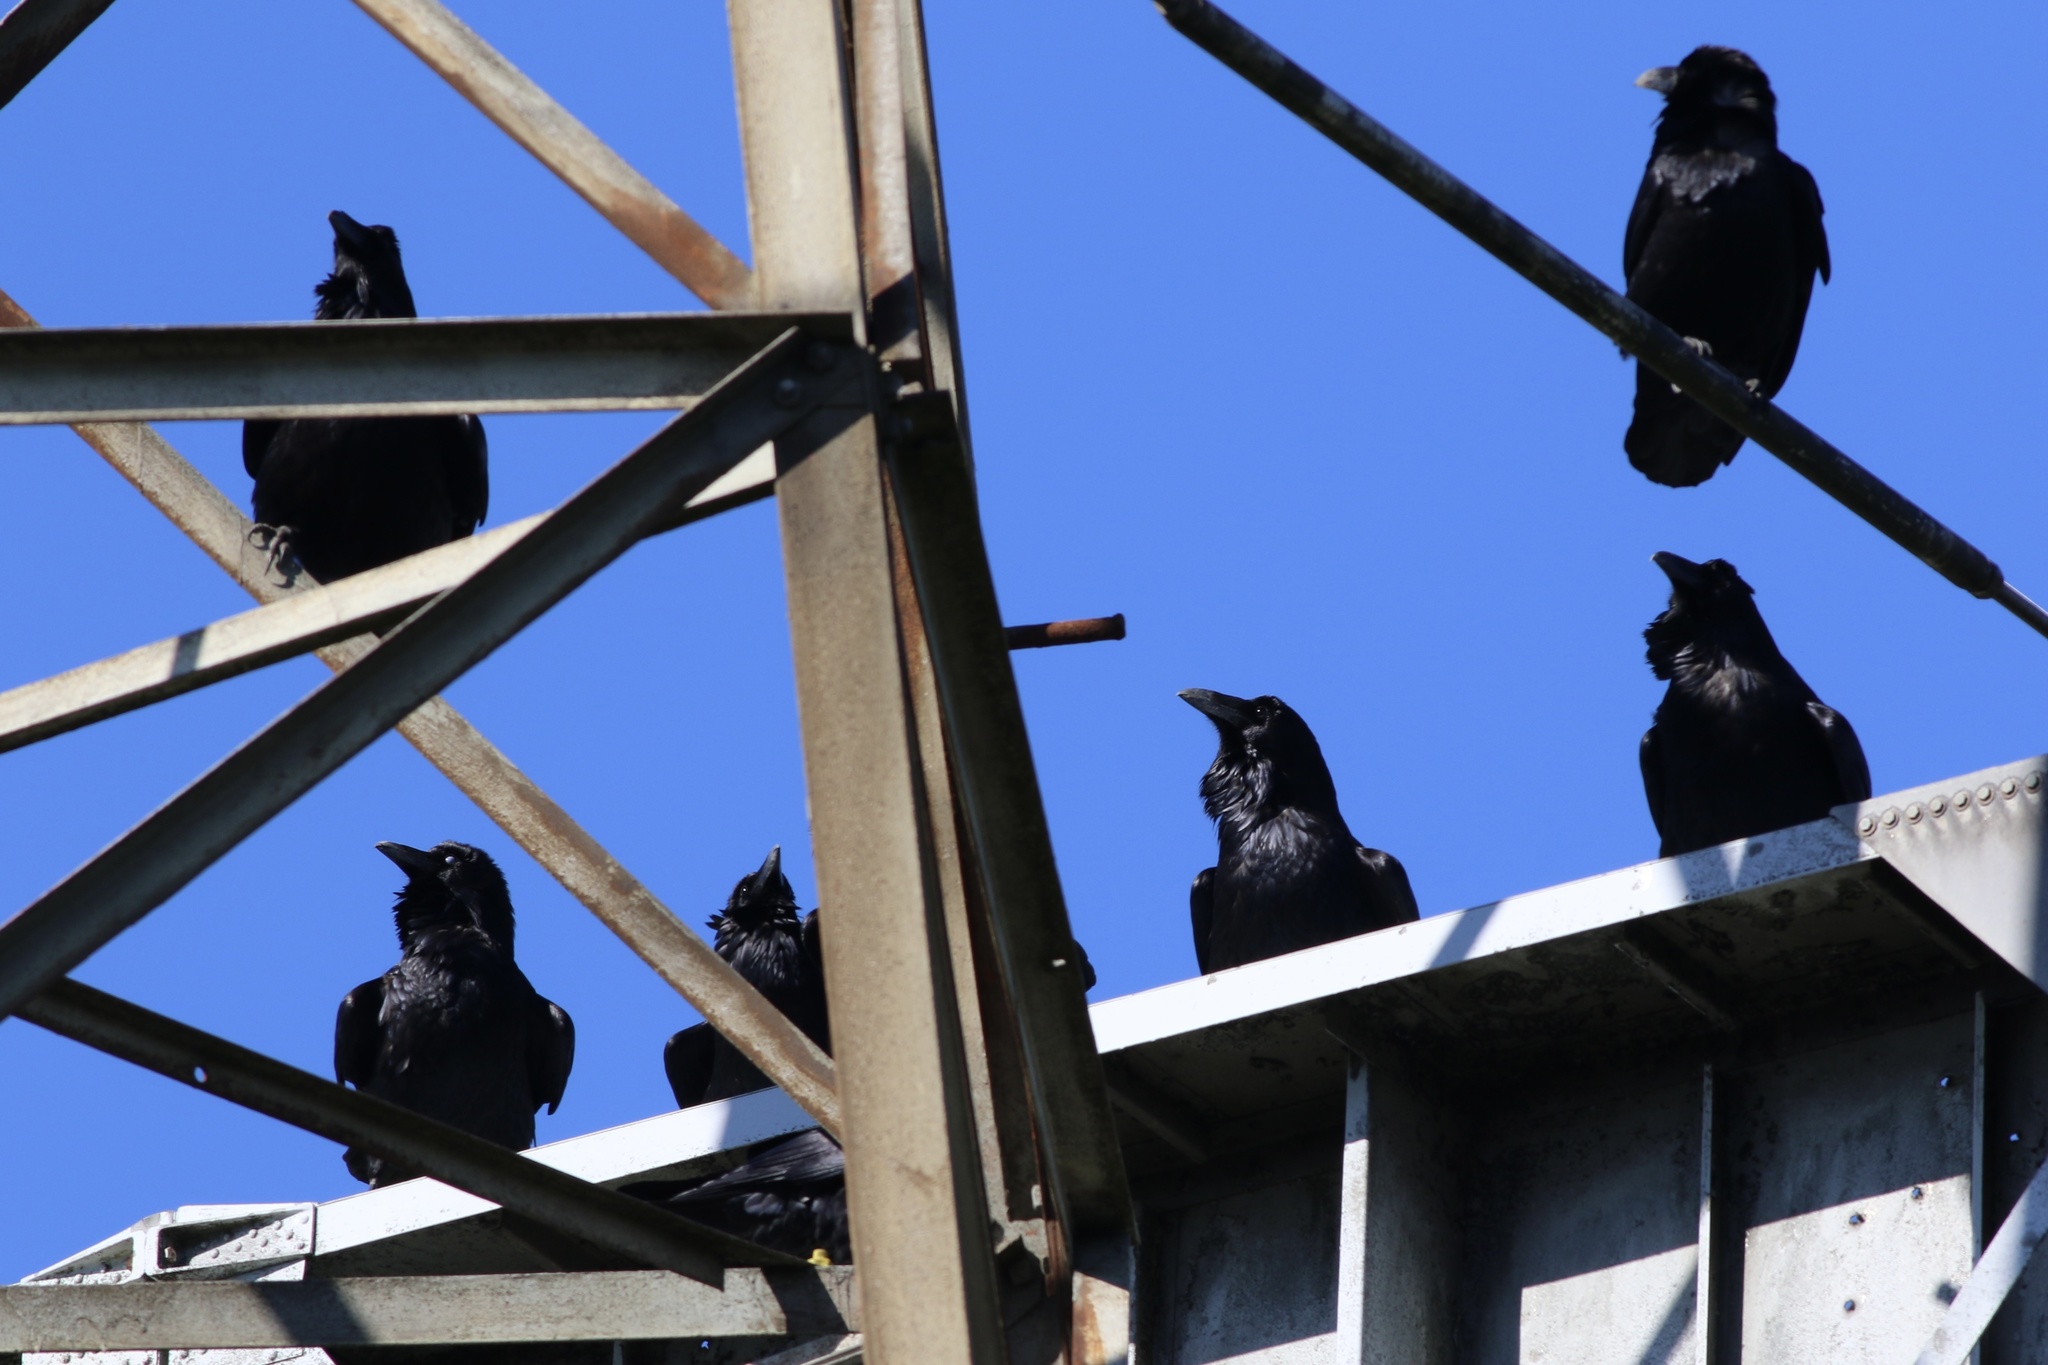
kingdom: Animalia
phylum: Chordata
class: Aves
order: Passeriformes
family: Corvidae
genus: Corvus
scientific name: Corvus corax
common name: Common raven
